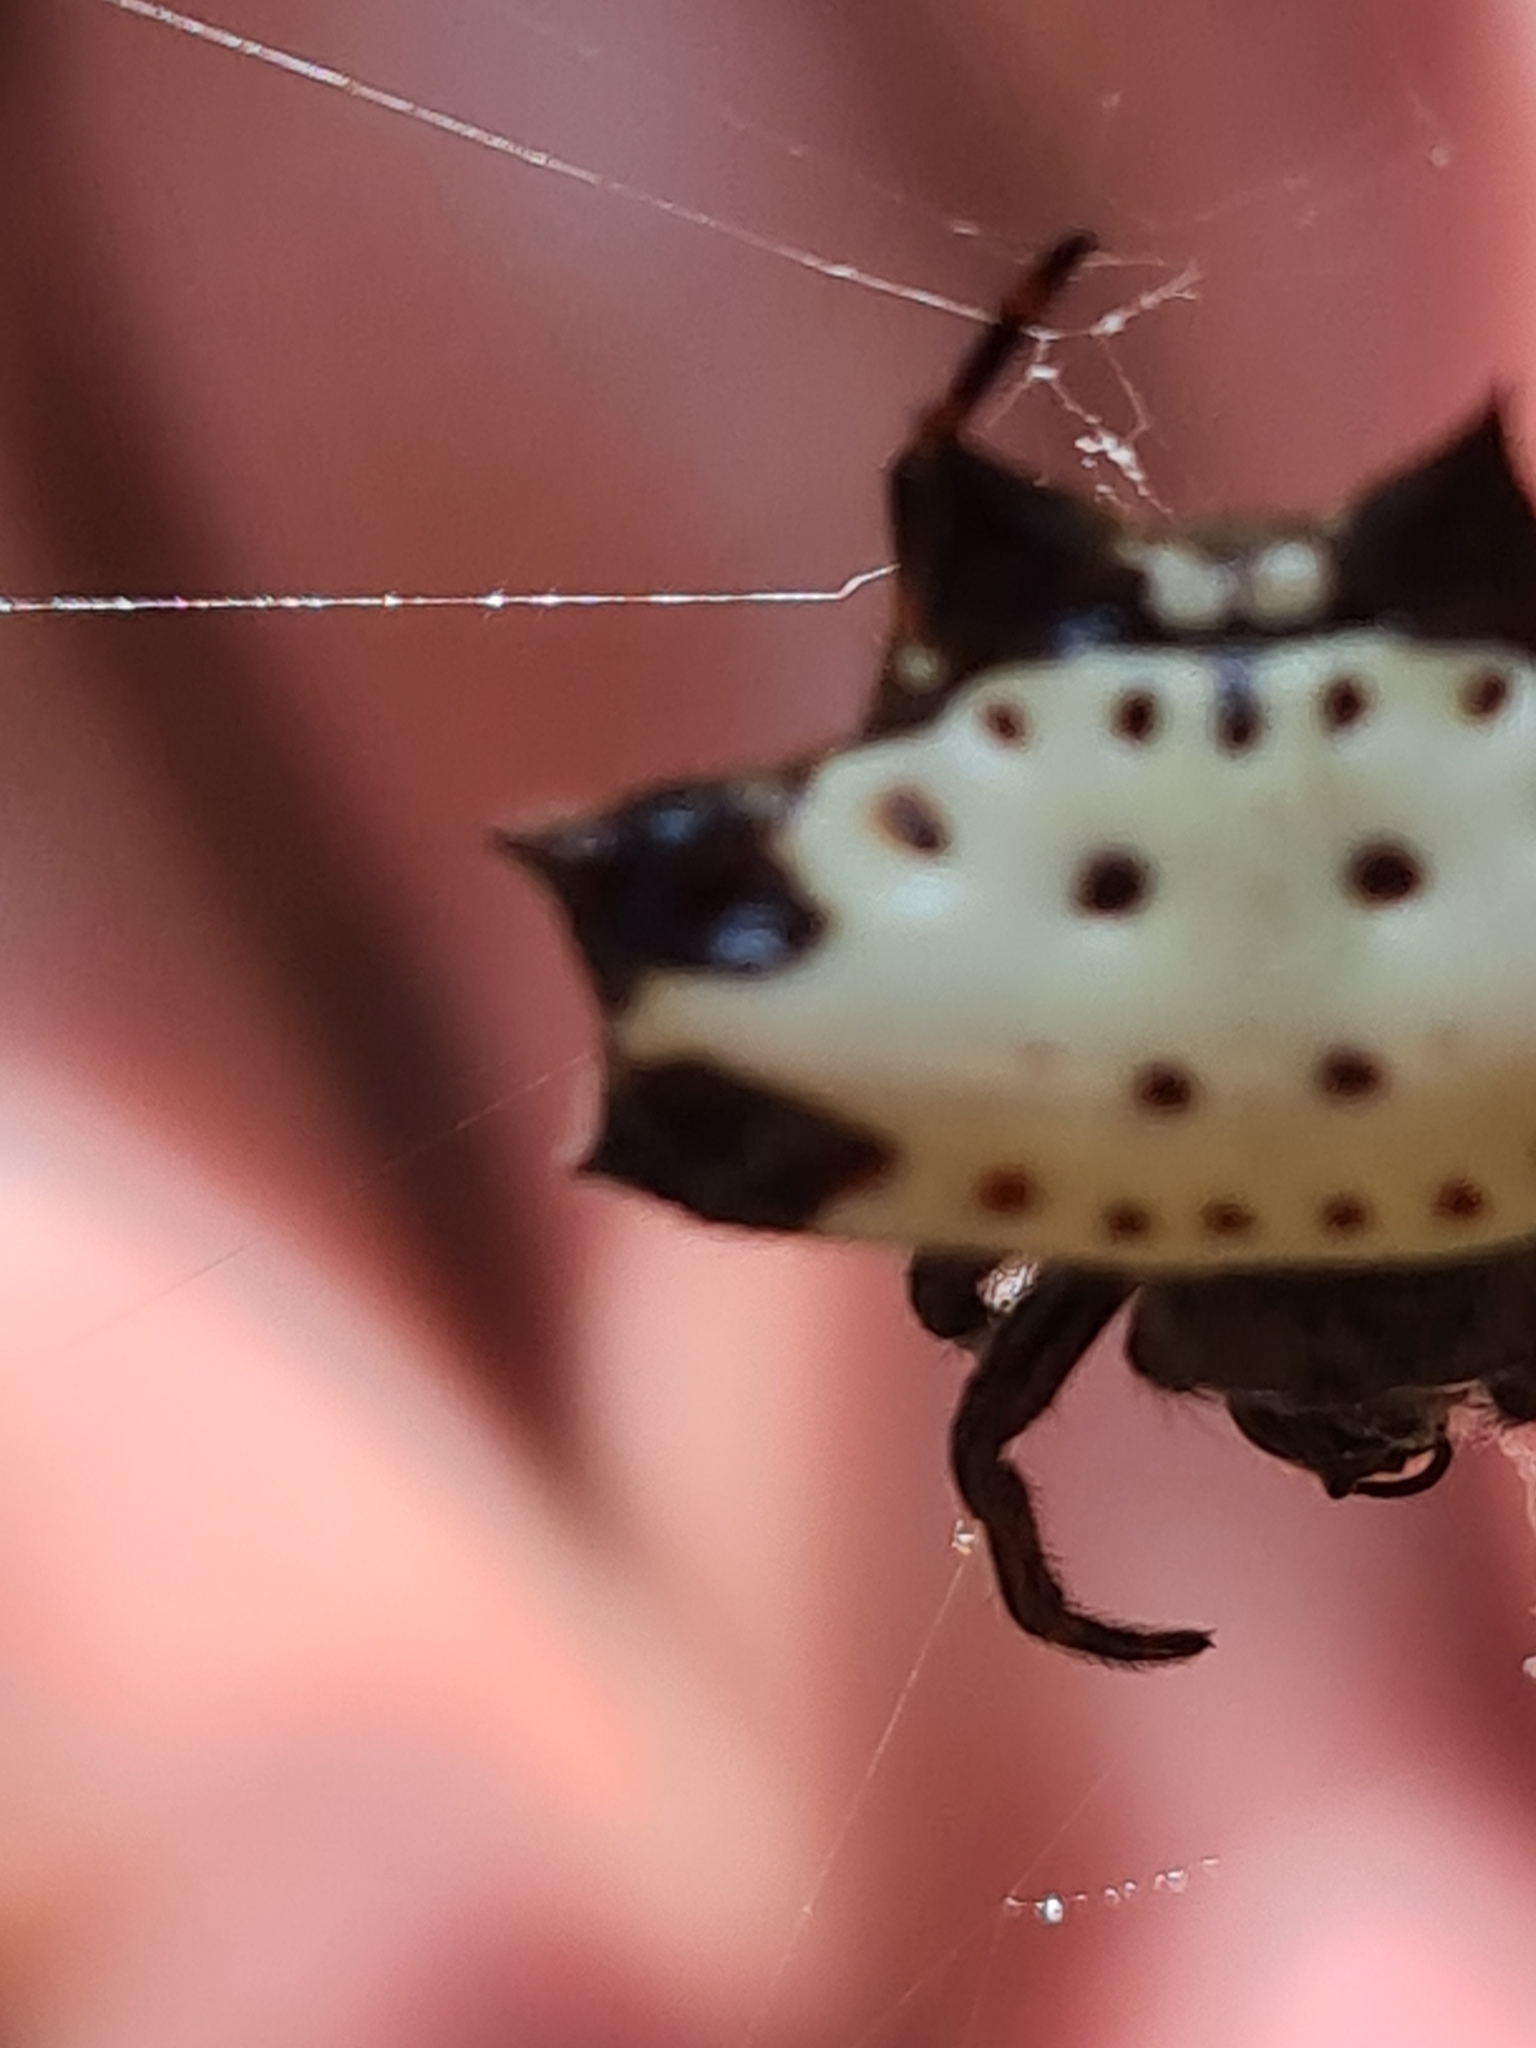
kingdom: Animalia
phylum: Arthropoda
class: Arachnida
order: Araneae
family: Araneidae
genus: Gasteracantha
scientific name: Gasteracantha cancriformis
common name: Orb weavers
